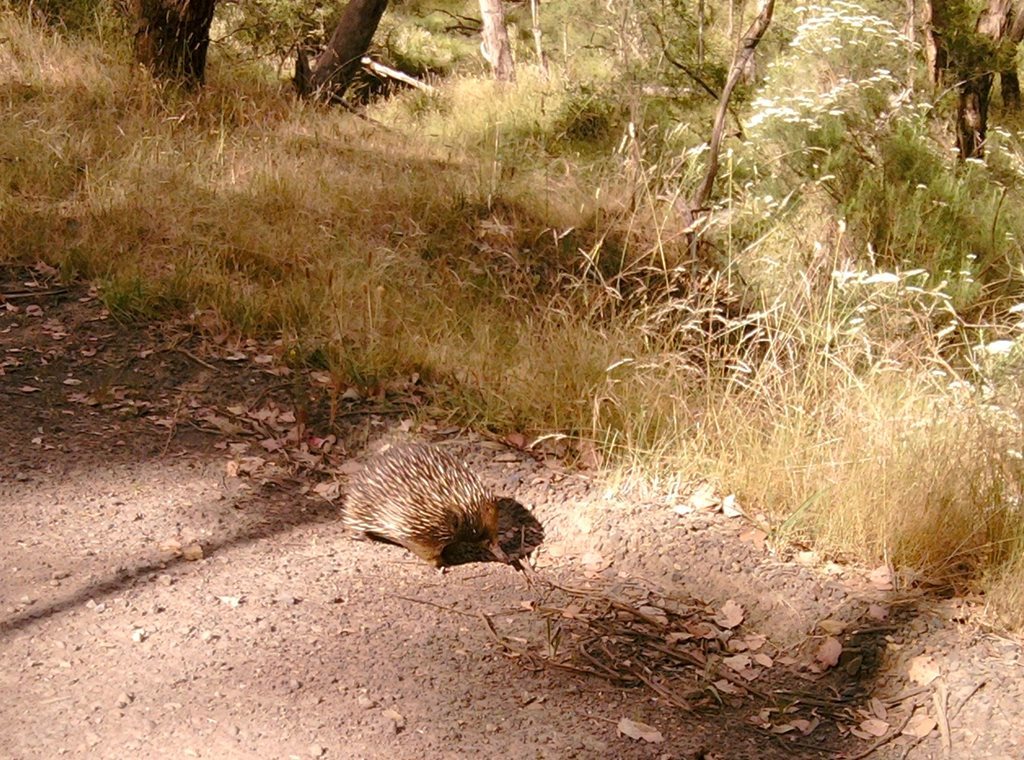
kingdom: Animalia
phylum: Chordata
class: Mammalia
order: Monotremata
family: Tachyglossidae
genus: Tachyglossus
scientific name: Tachyglossus aculeatus
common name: Short-beaked echidna
